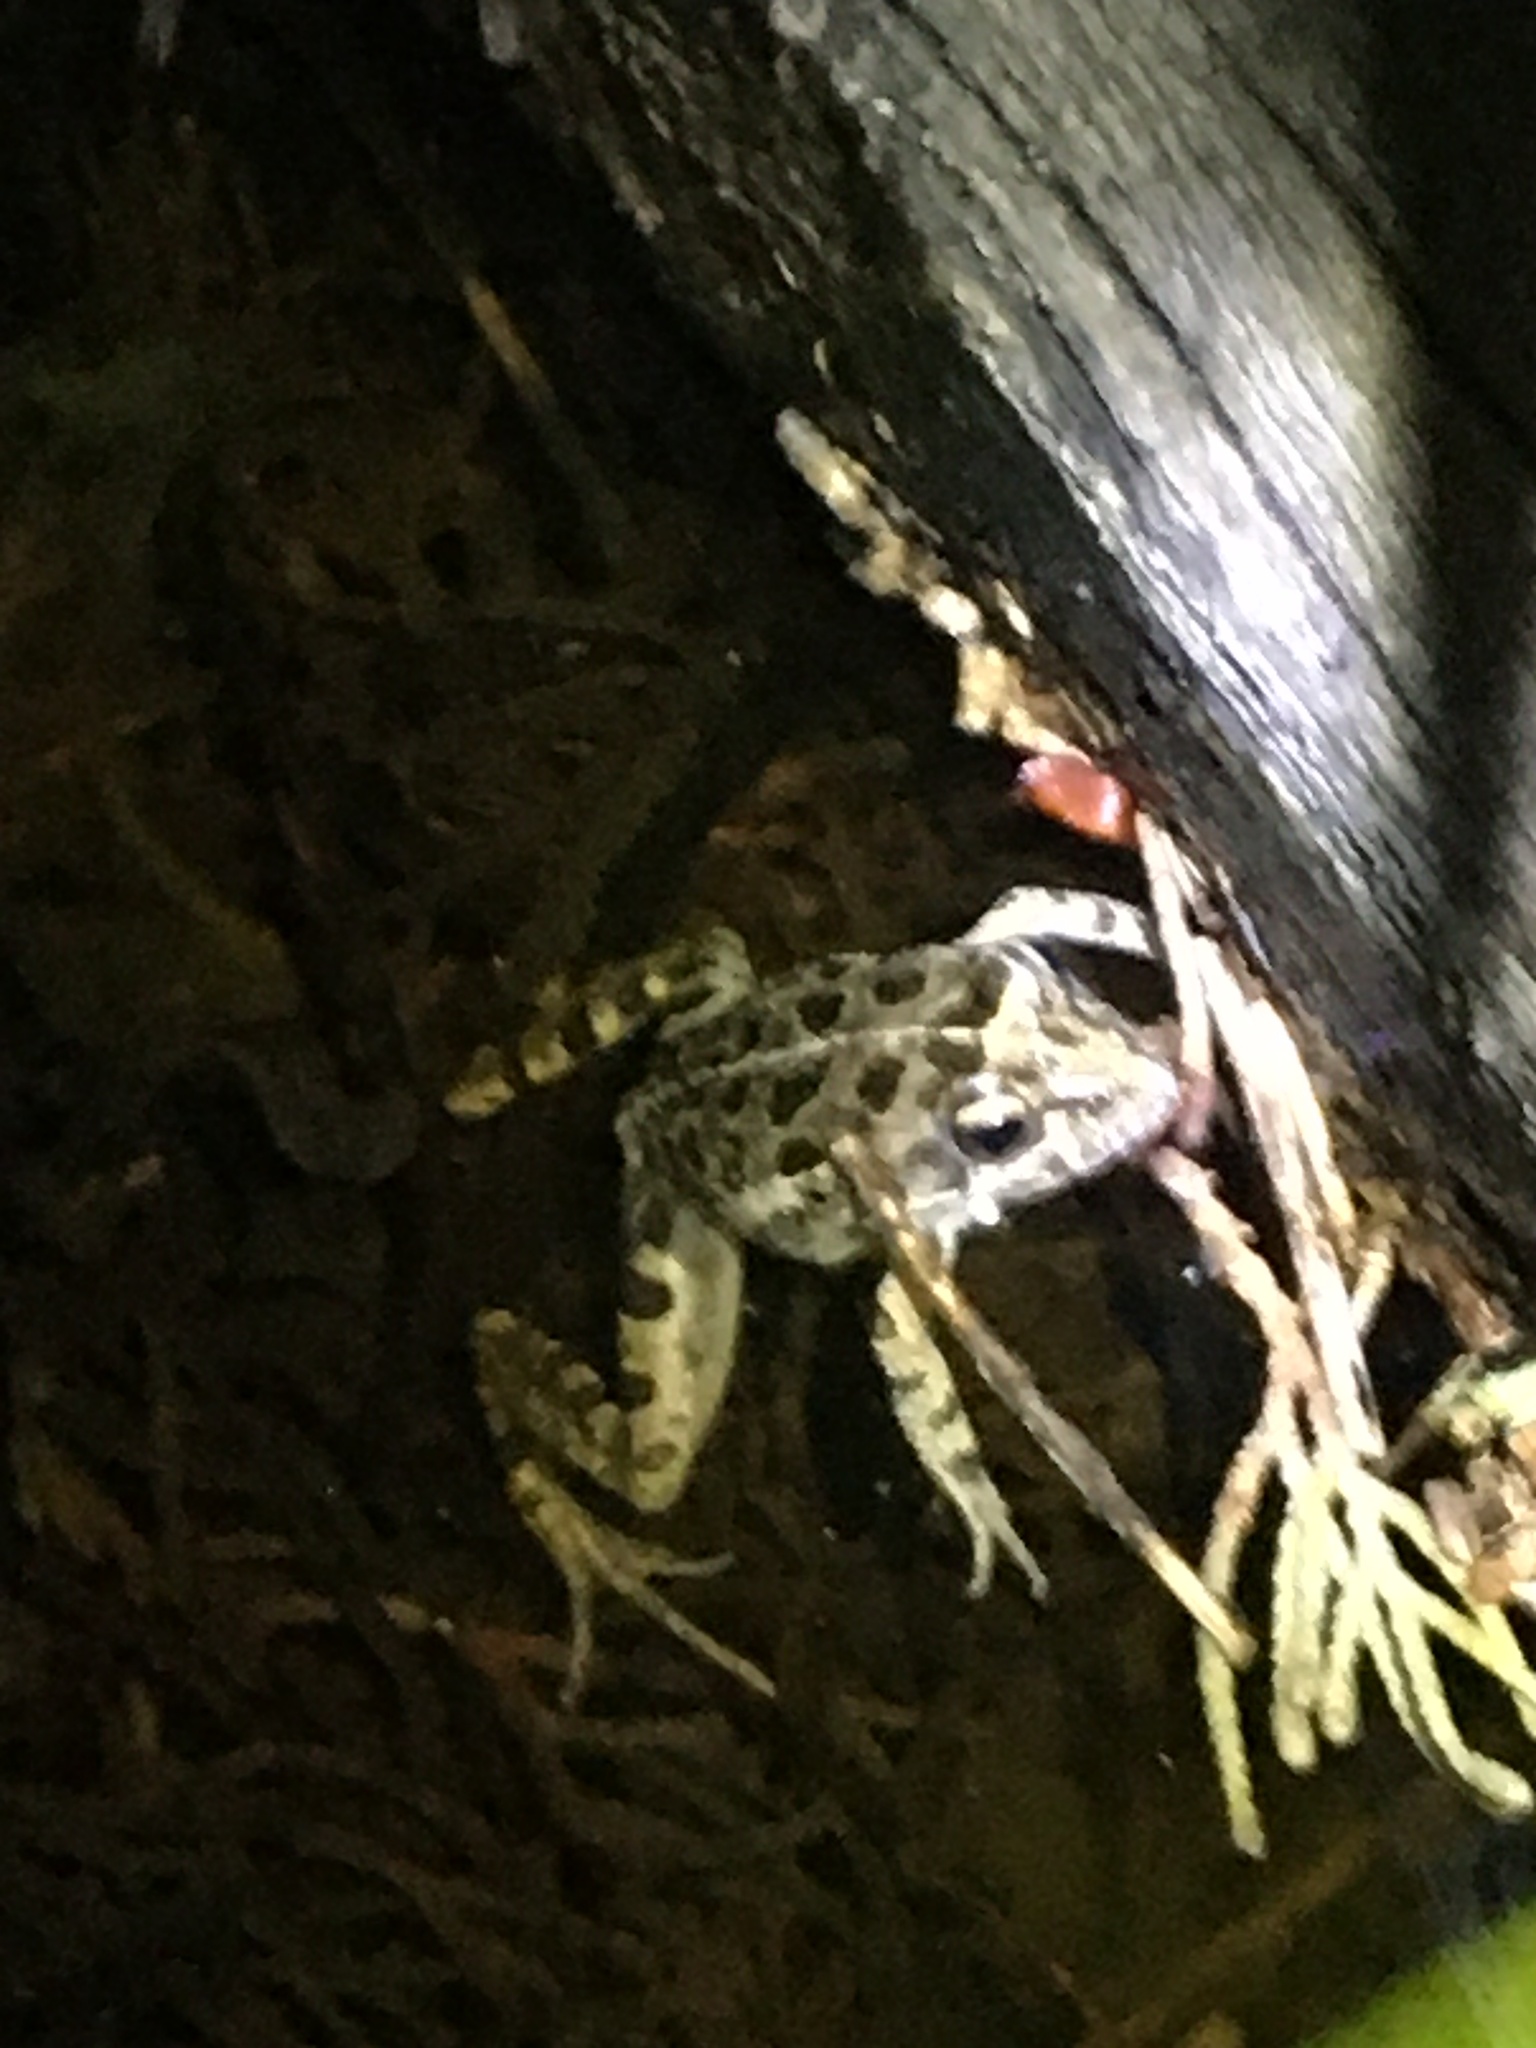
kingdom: Animalia
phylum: Chordata
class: Amphibia
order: Anura
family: Pyxicephalidae
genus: Strongylopus
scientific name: Strongylopus grayii
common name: Gray's stream frog
